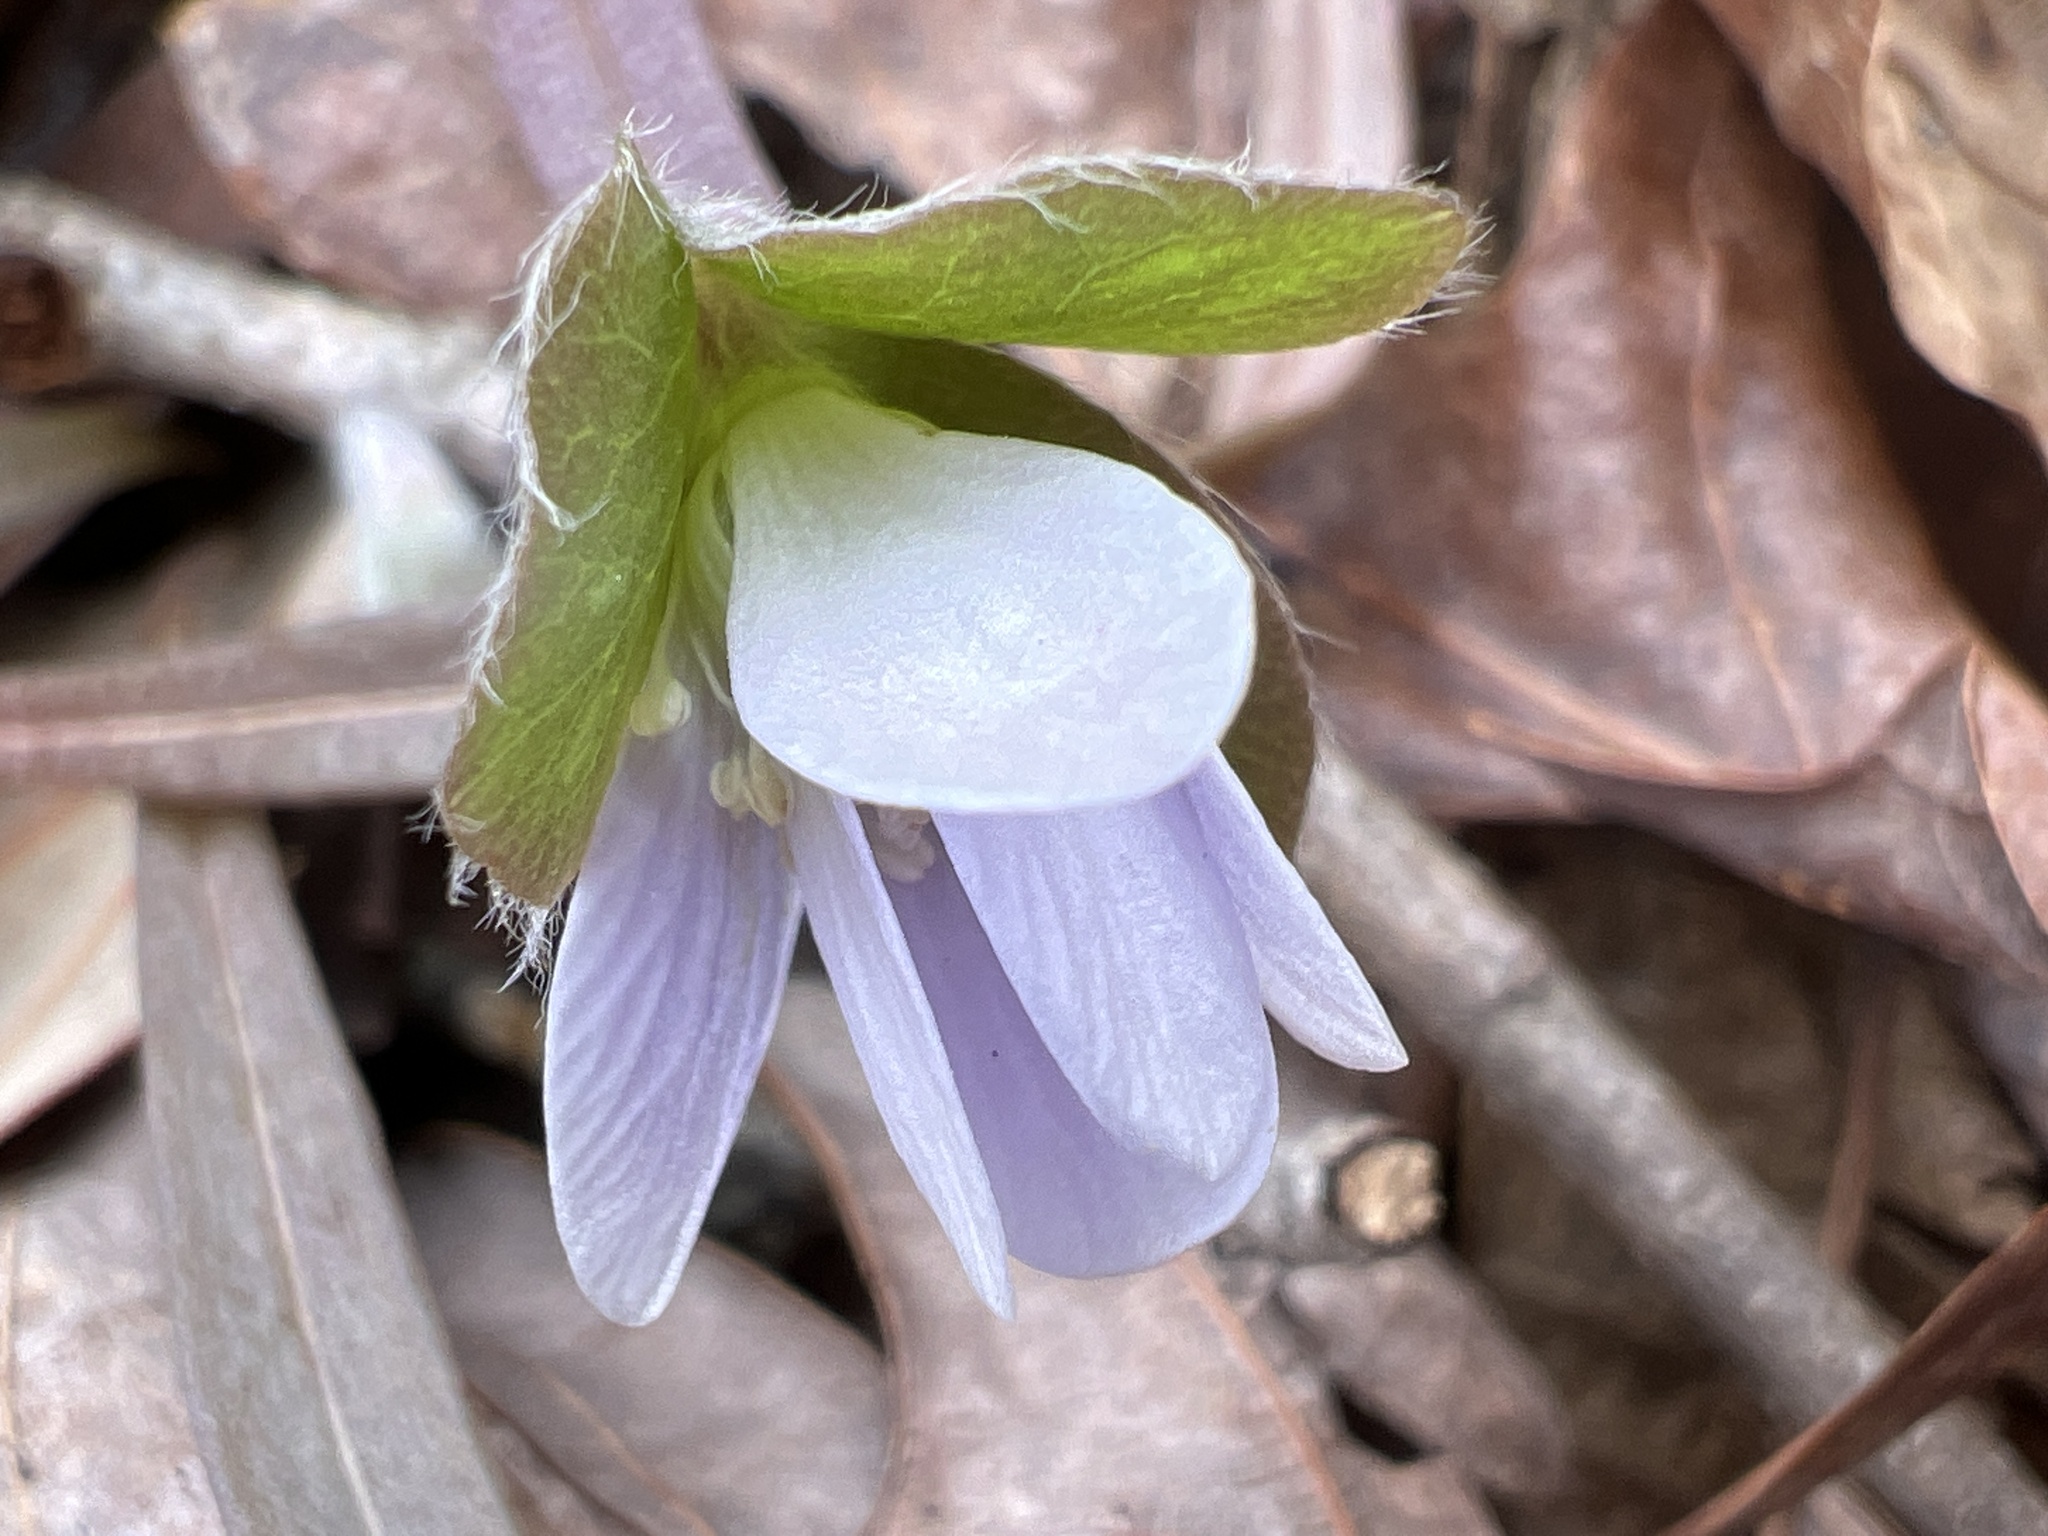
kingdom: Plantae
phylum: Tracheophyta
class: Magnoliopsida
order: Ranunculales
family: Ranunculaceae
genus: Hepatica
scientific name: Hepatica americana
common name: American hepatica
